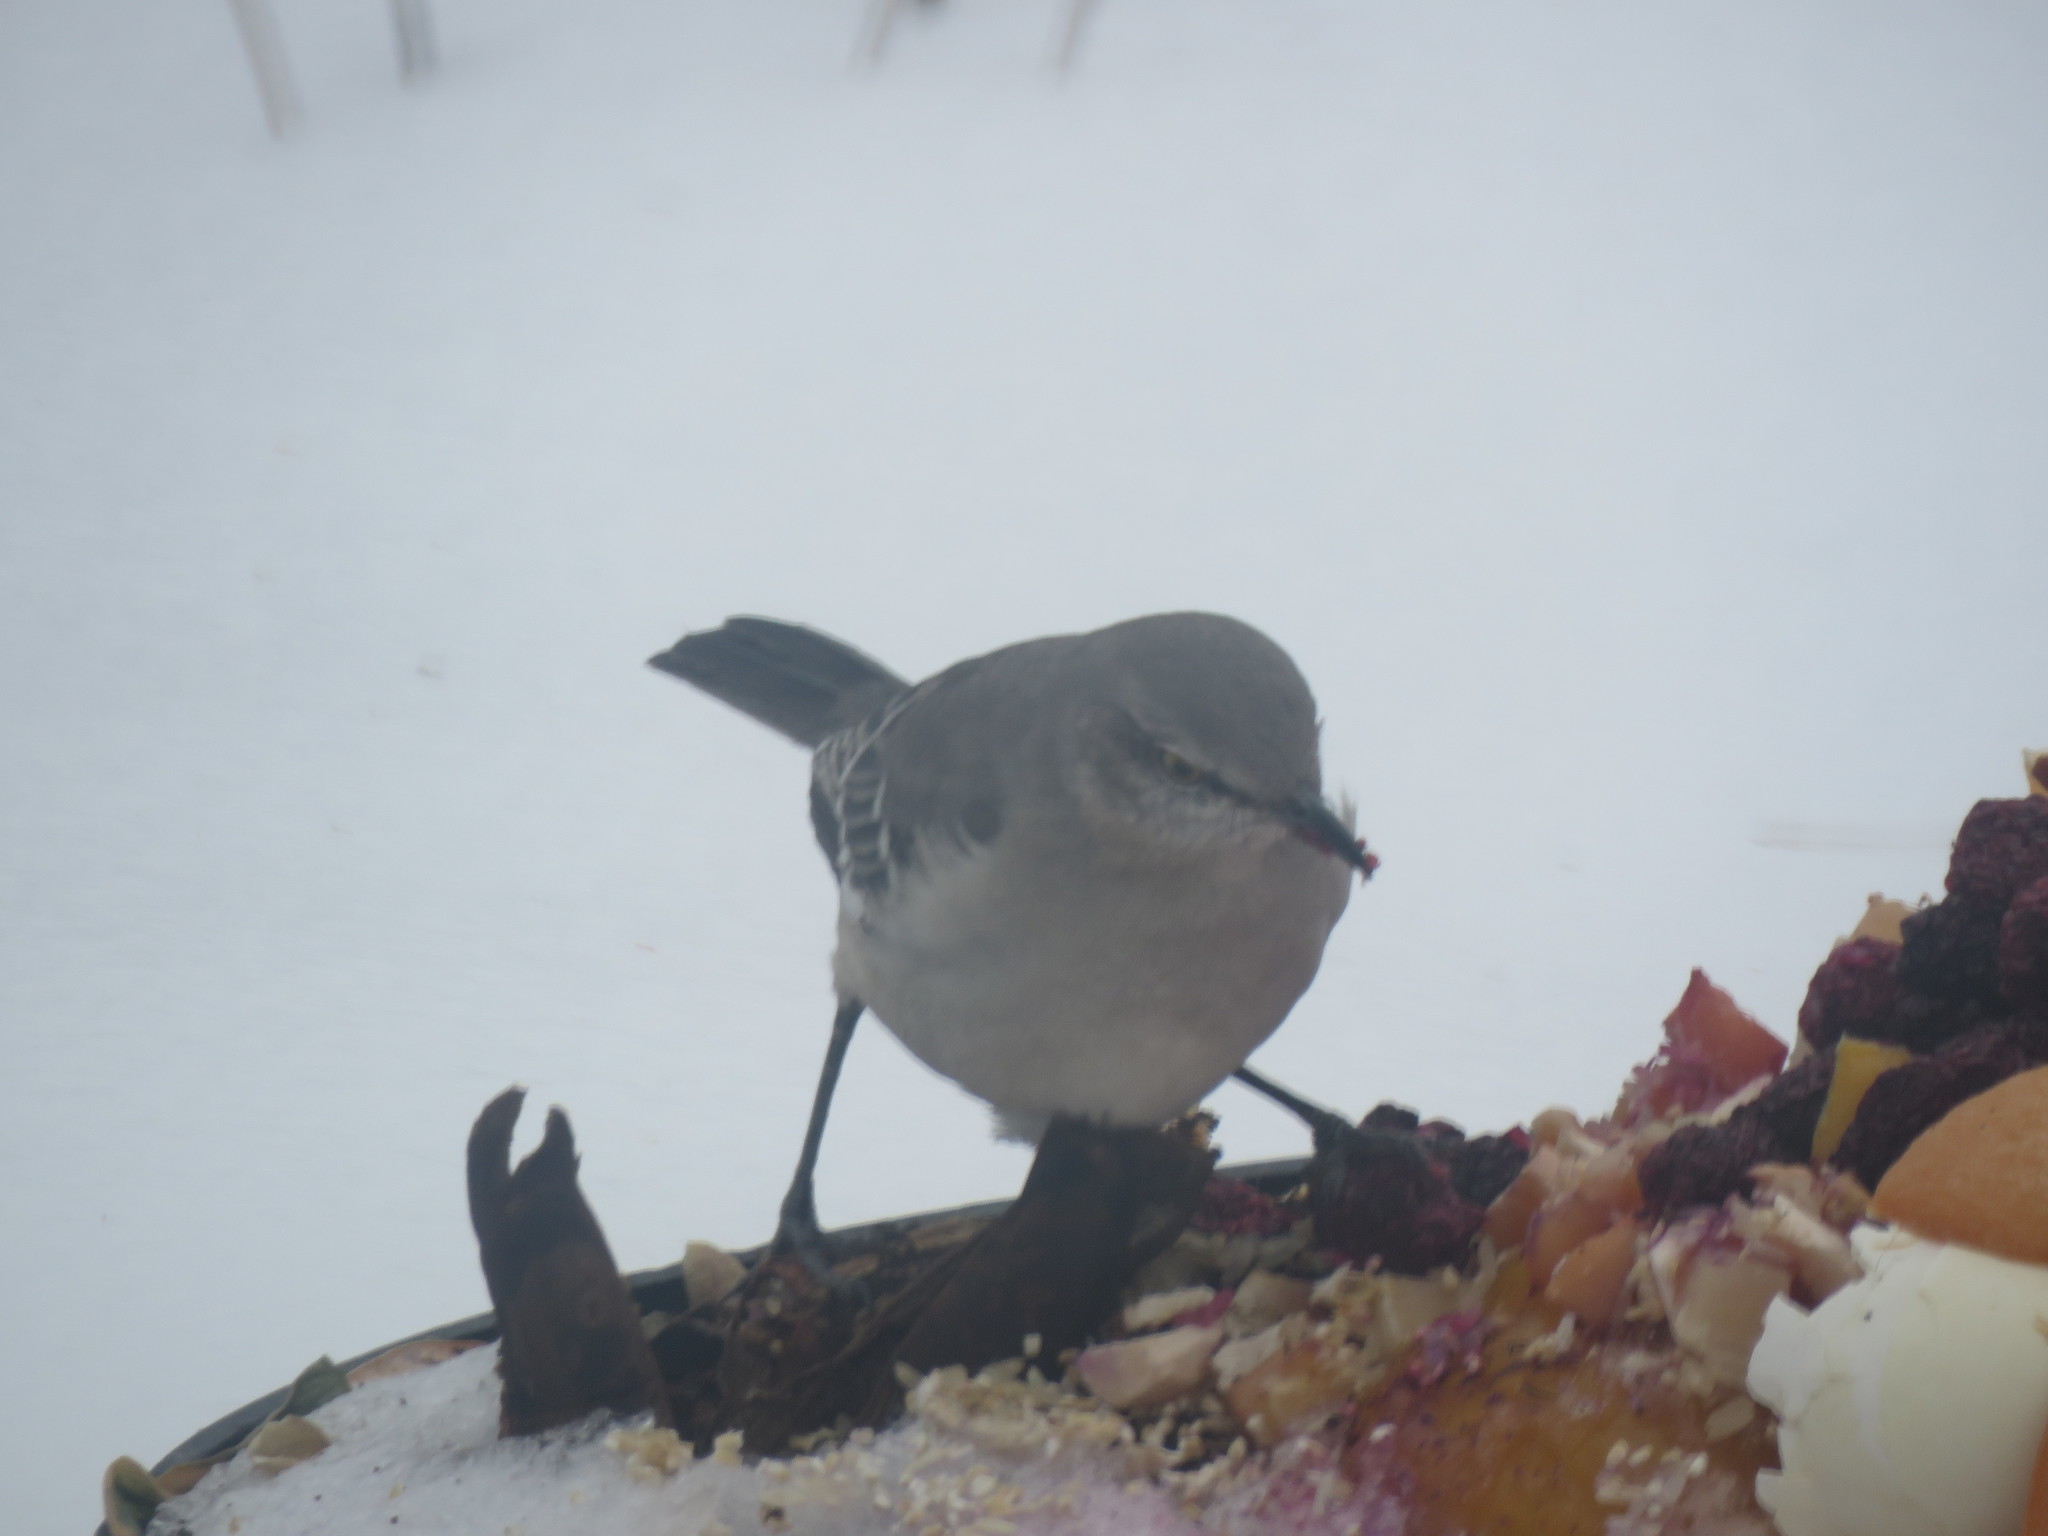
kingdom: Animalia
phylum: Chordata
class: Aves
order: Passeriformes
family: Mimidae
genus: Mimus
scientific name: Mimus polyglottos
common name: Northern mockingbird
